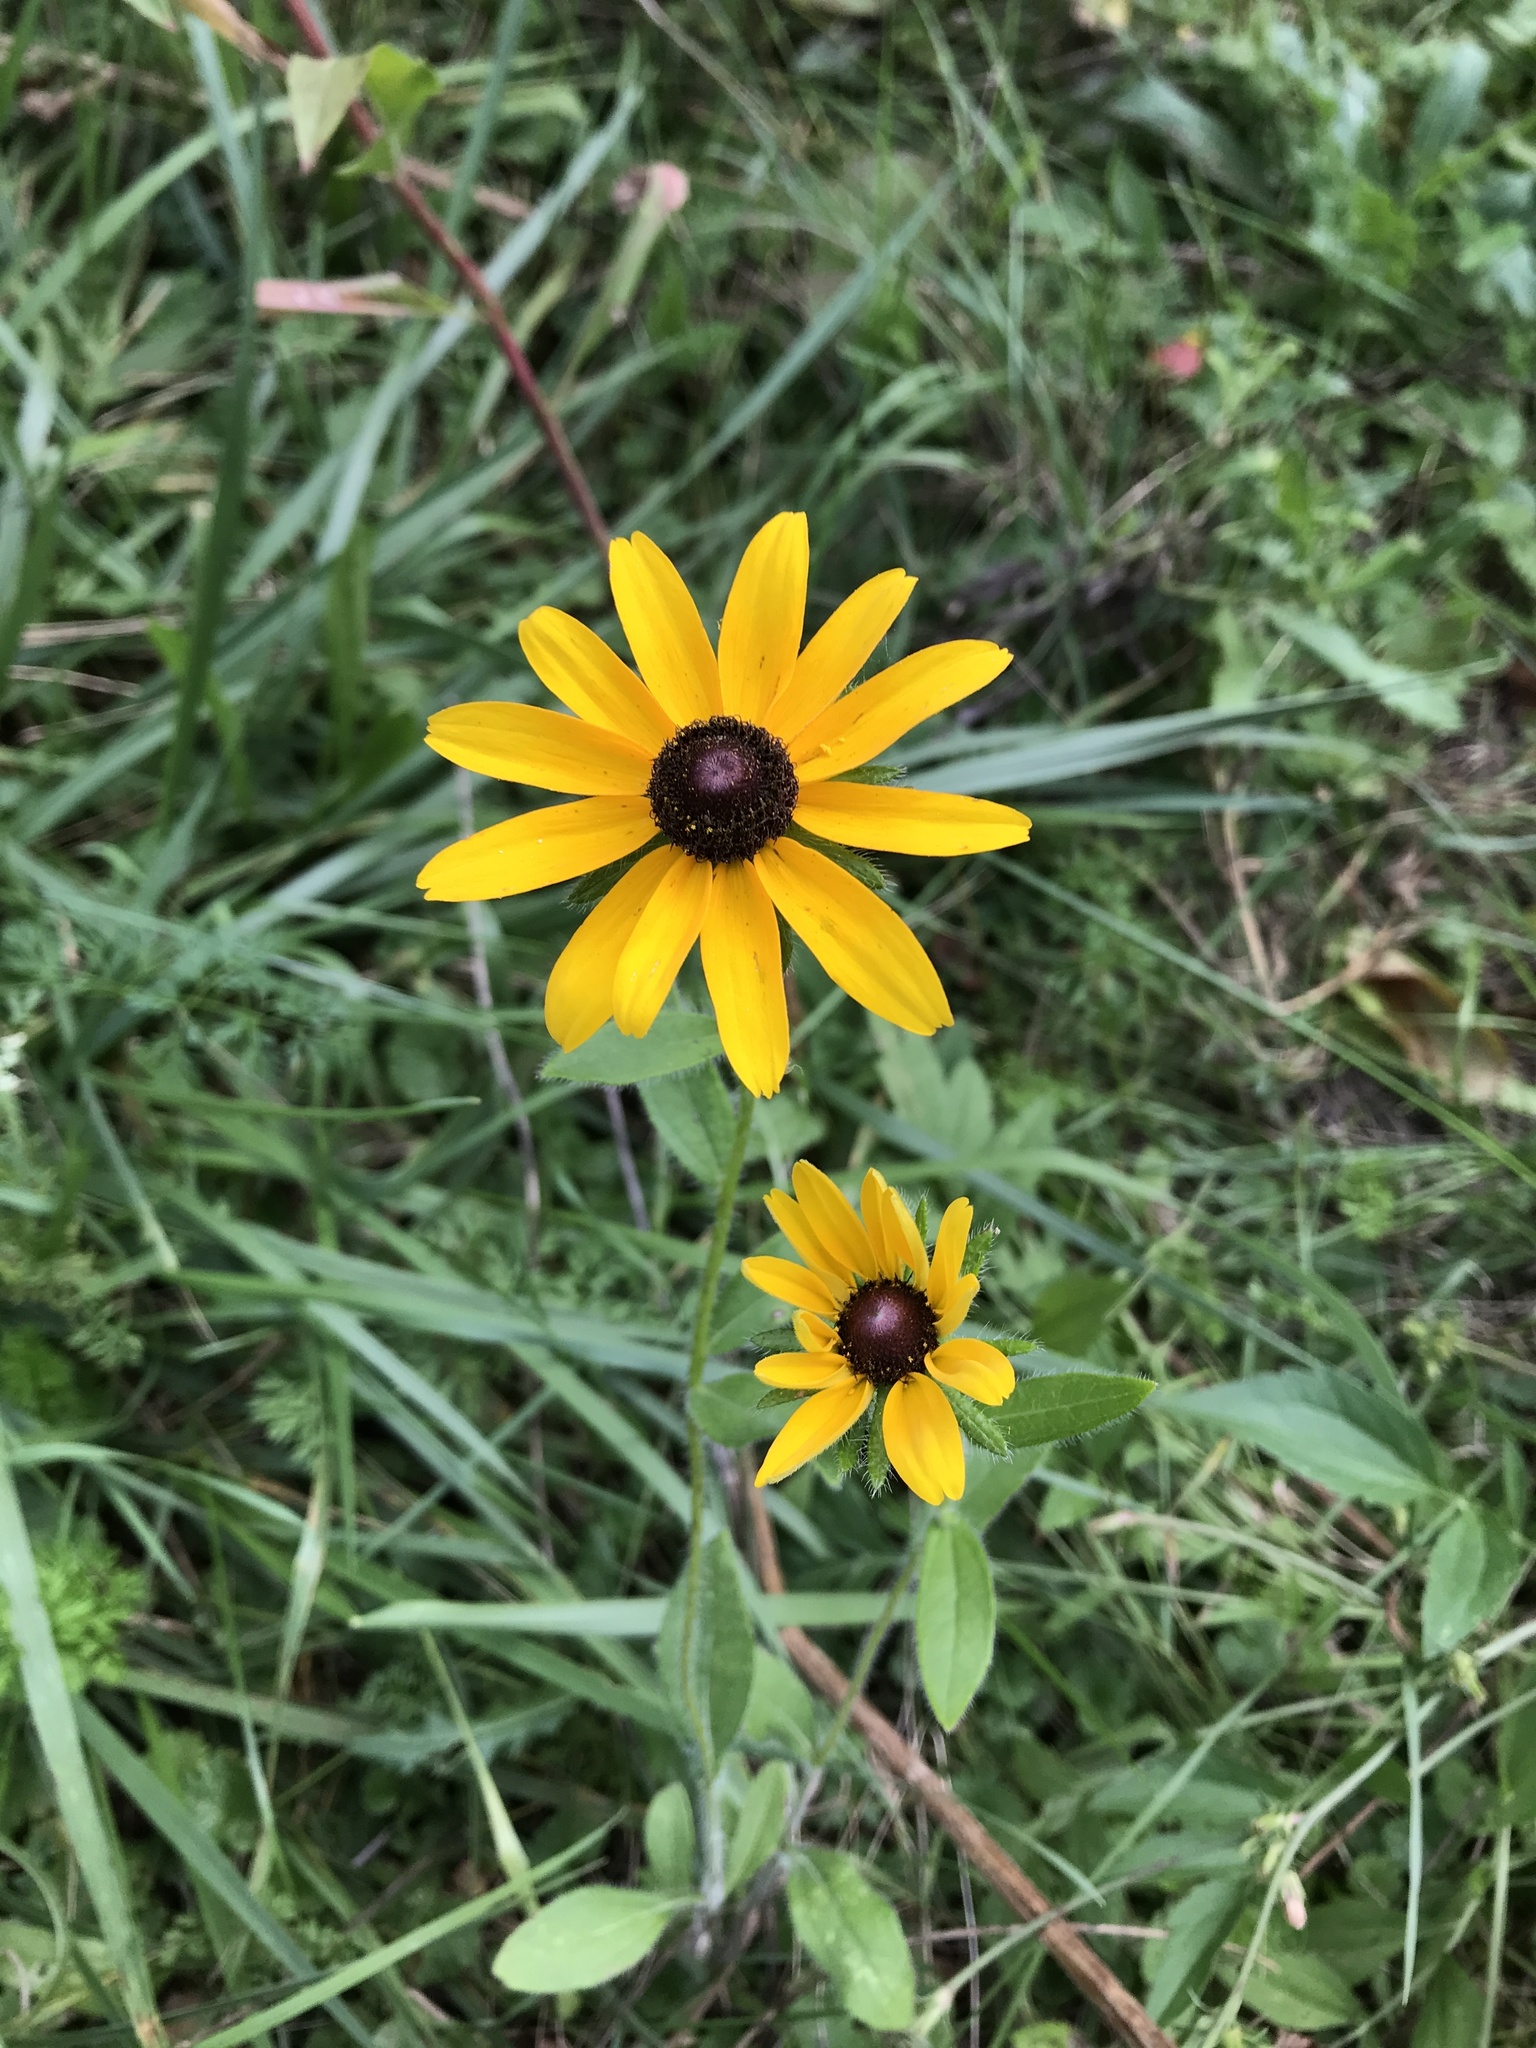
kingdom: Plantae
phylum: Tracheophyta
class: Magnoliopsida
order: Asterales
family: Asteraceae
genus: Rudbeckia
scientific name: Rudbeckia hirta
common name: Black-eyed-susan
